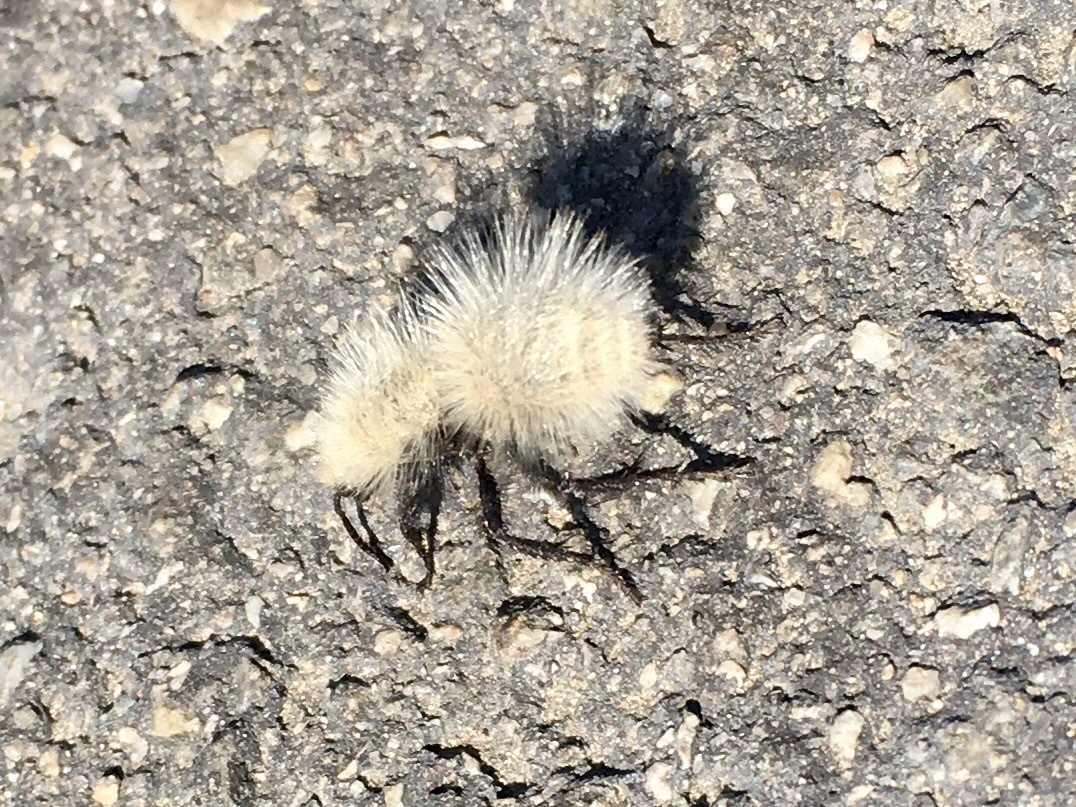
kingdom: Animalia
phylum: Arthropoda
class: Insecta
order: Hymenoptera
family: Mutillidae
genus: Dasymutilla
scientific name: Dasymutilla
